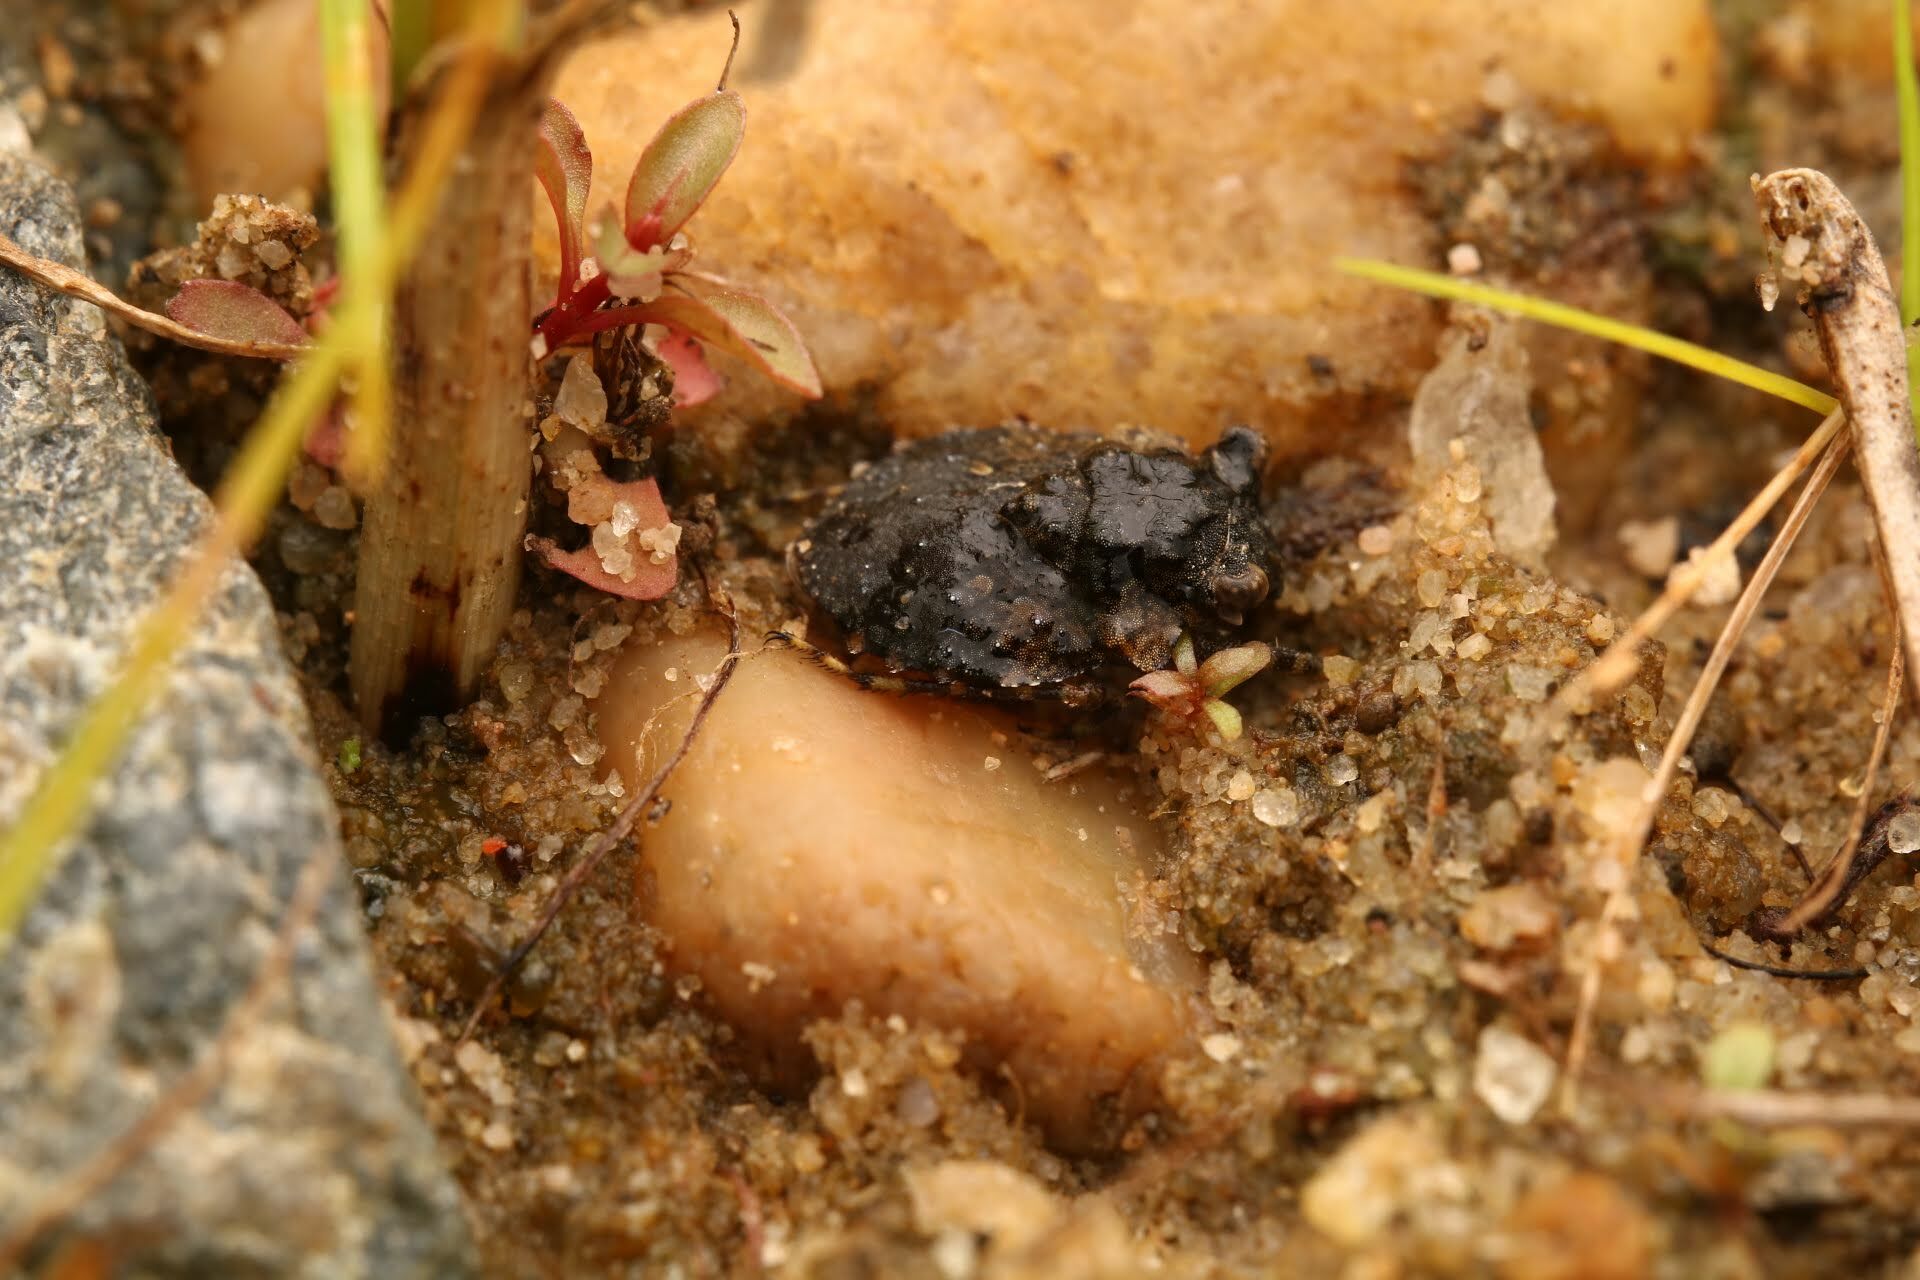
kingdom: Animalia
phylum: Arthropoda
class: Insecta
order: Hemiptera
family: Gelastocoridae
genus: Gelastocoris
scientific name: Gelastocoris oculatus
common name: Toad bug
